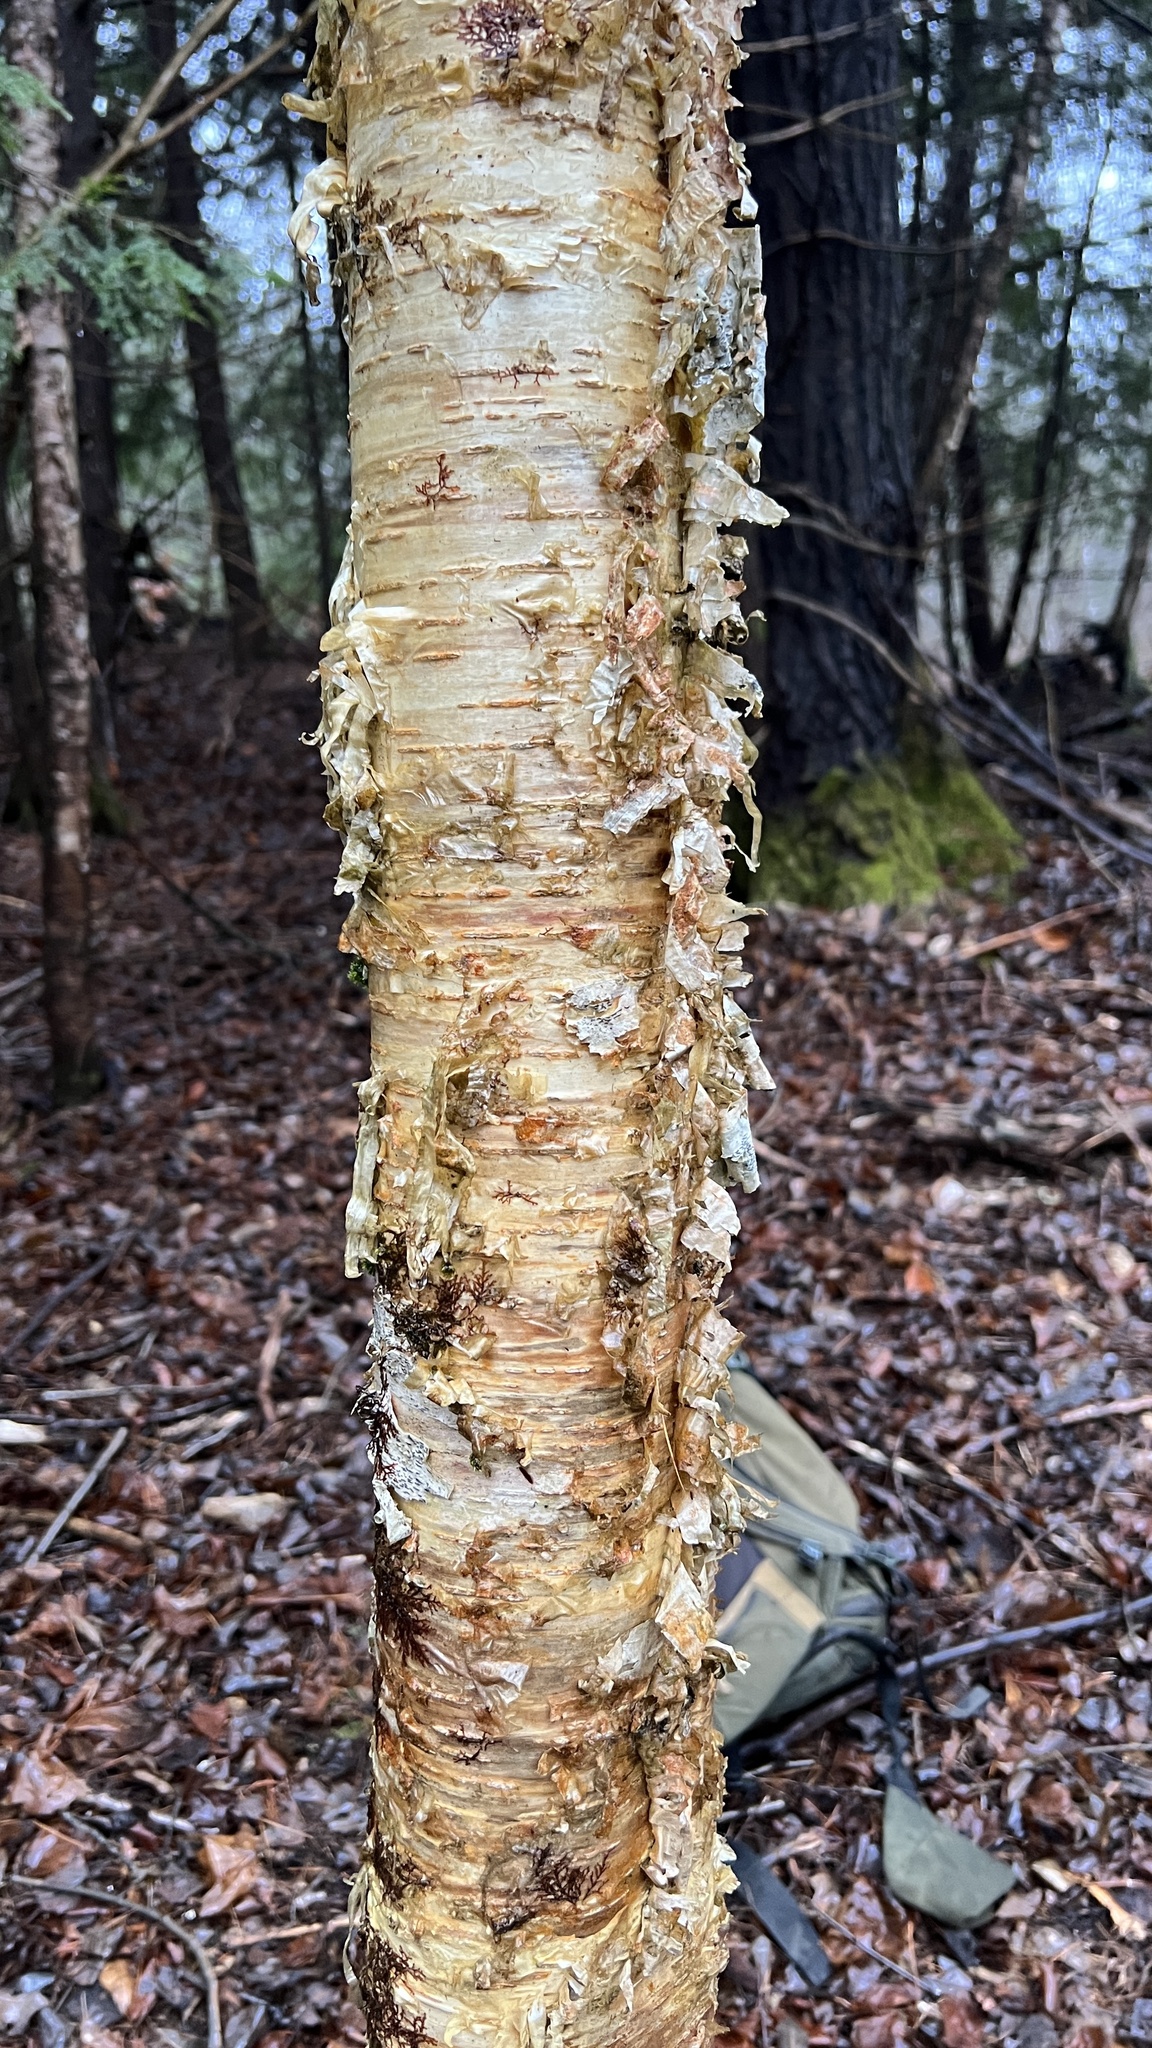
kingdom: Plantae
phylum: Tracheophyta
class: Magnoliopsida
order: Fagales
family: Betulaceae
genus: Betula
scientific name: Betula alleghaniensis
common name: Yellow birch
